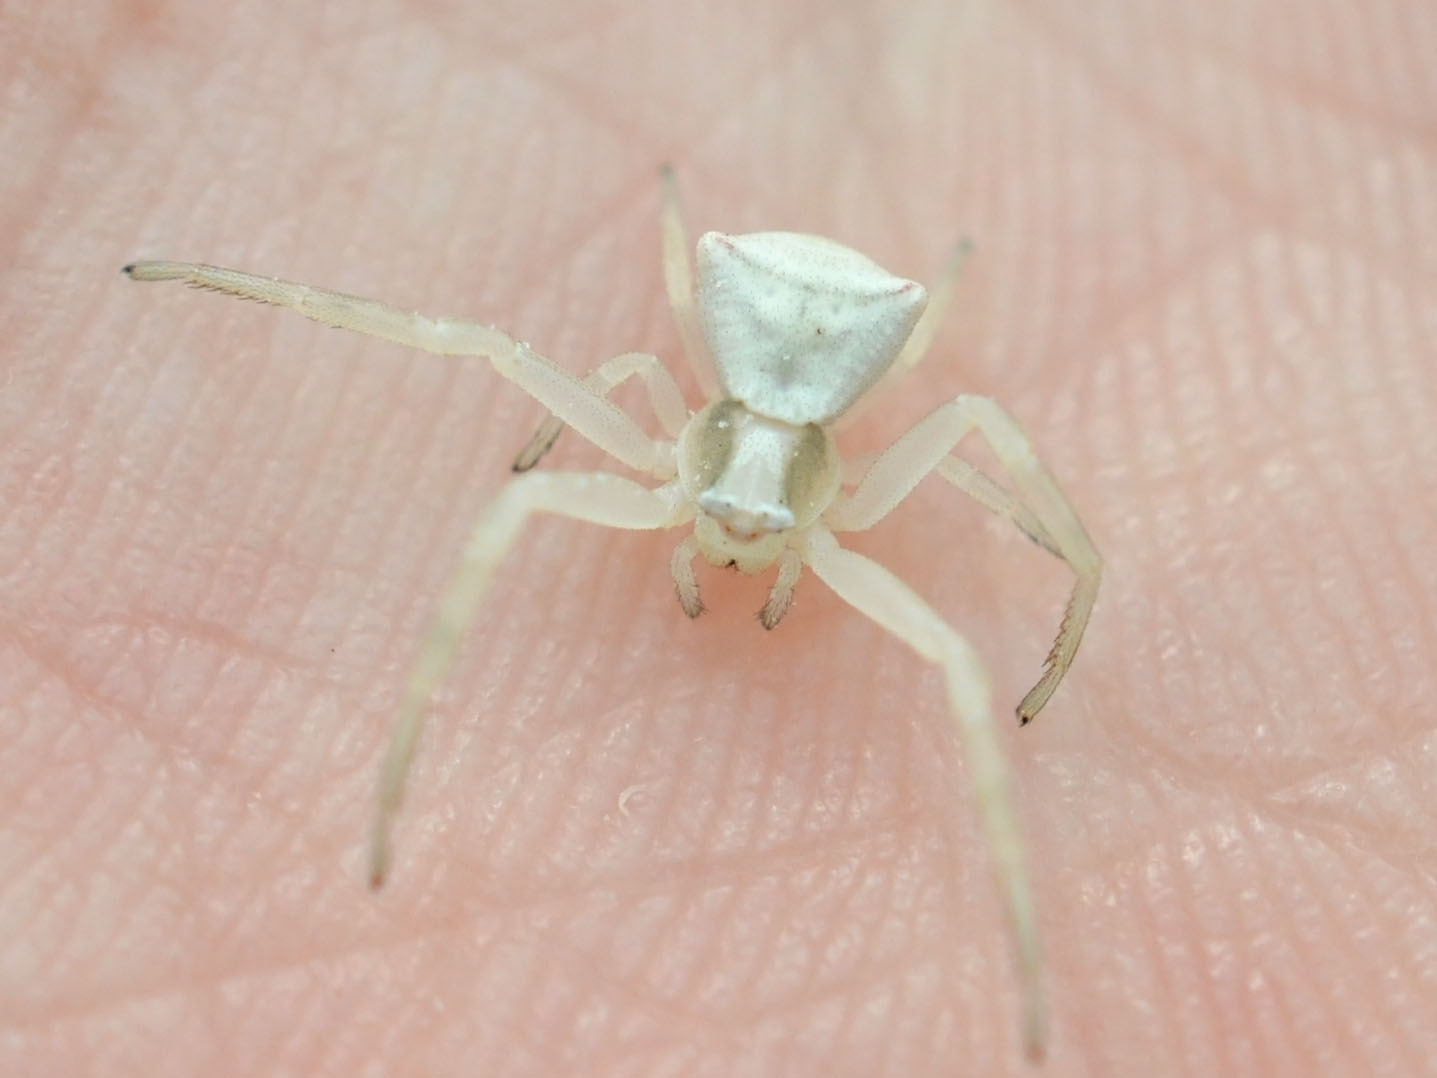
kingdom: Animalia
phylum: Arthropoda
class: Arachnida
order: Araneae
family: Thomisidae
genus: Thomisus
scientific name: Thomisus onustus
